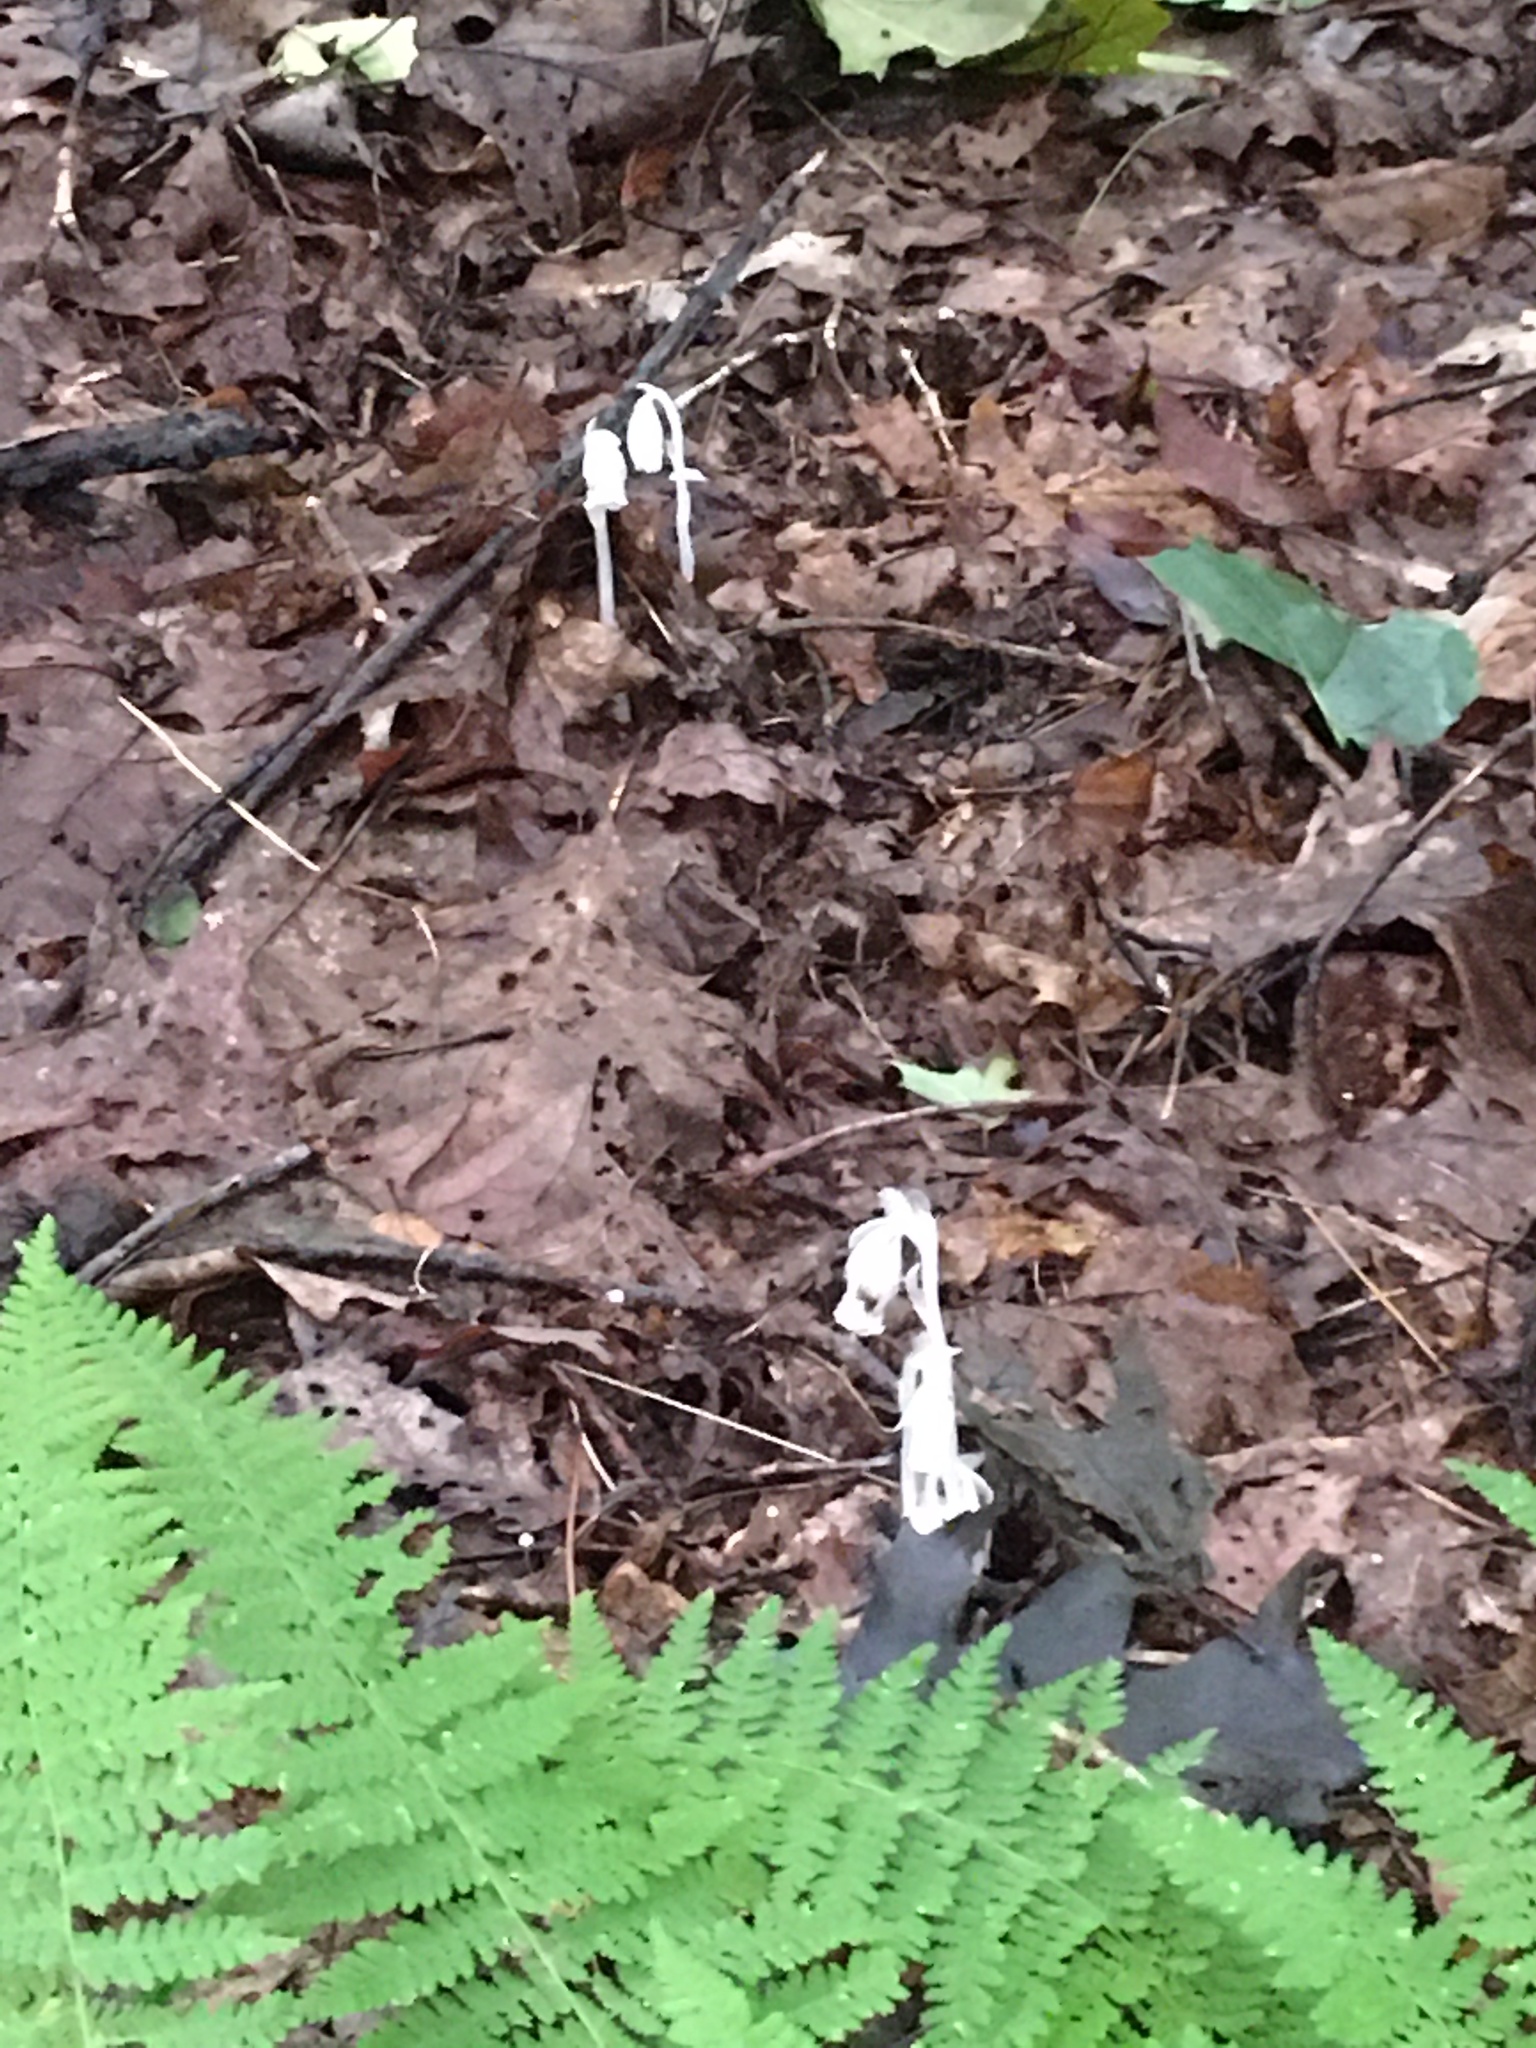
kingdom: Plantae
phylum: Tracheophyta
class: Magnoliopsida
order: Ericales
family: Ericaceae
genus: Monotropa
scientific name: Monotropa uniflora
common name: Convulsion root
